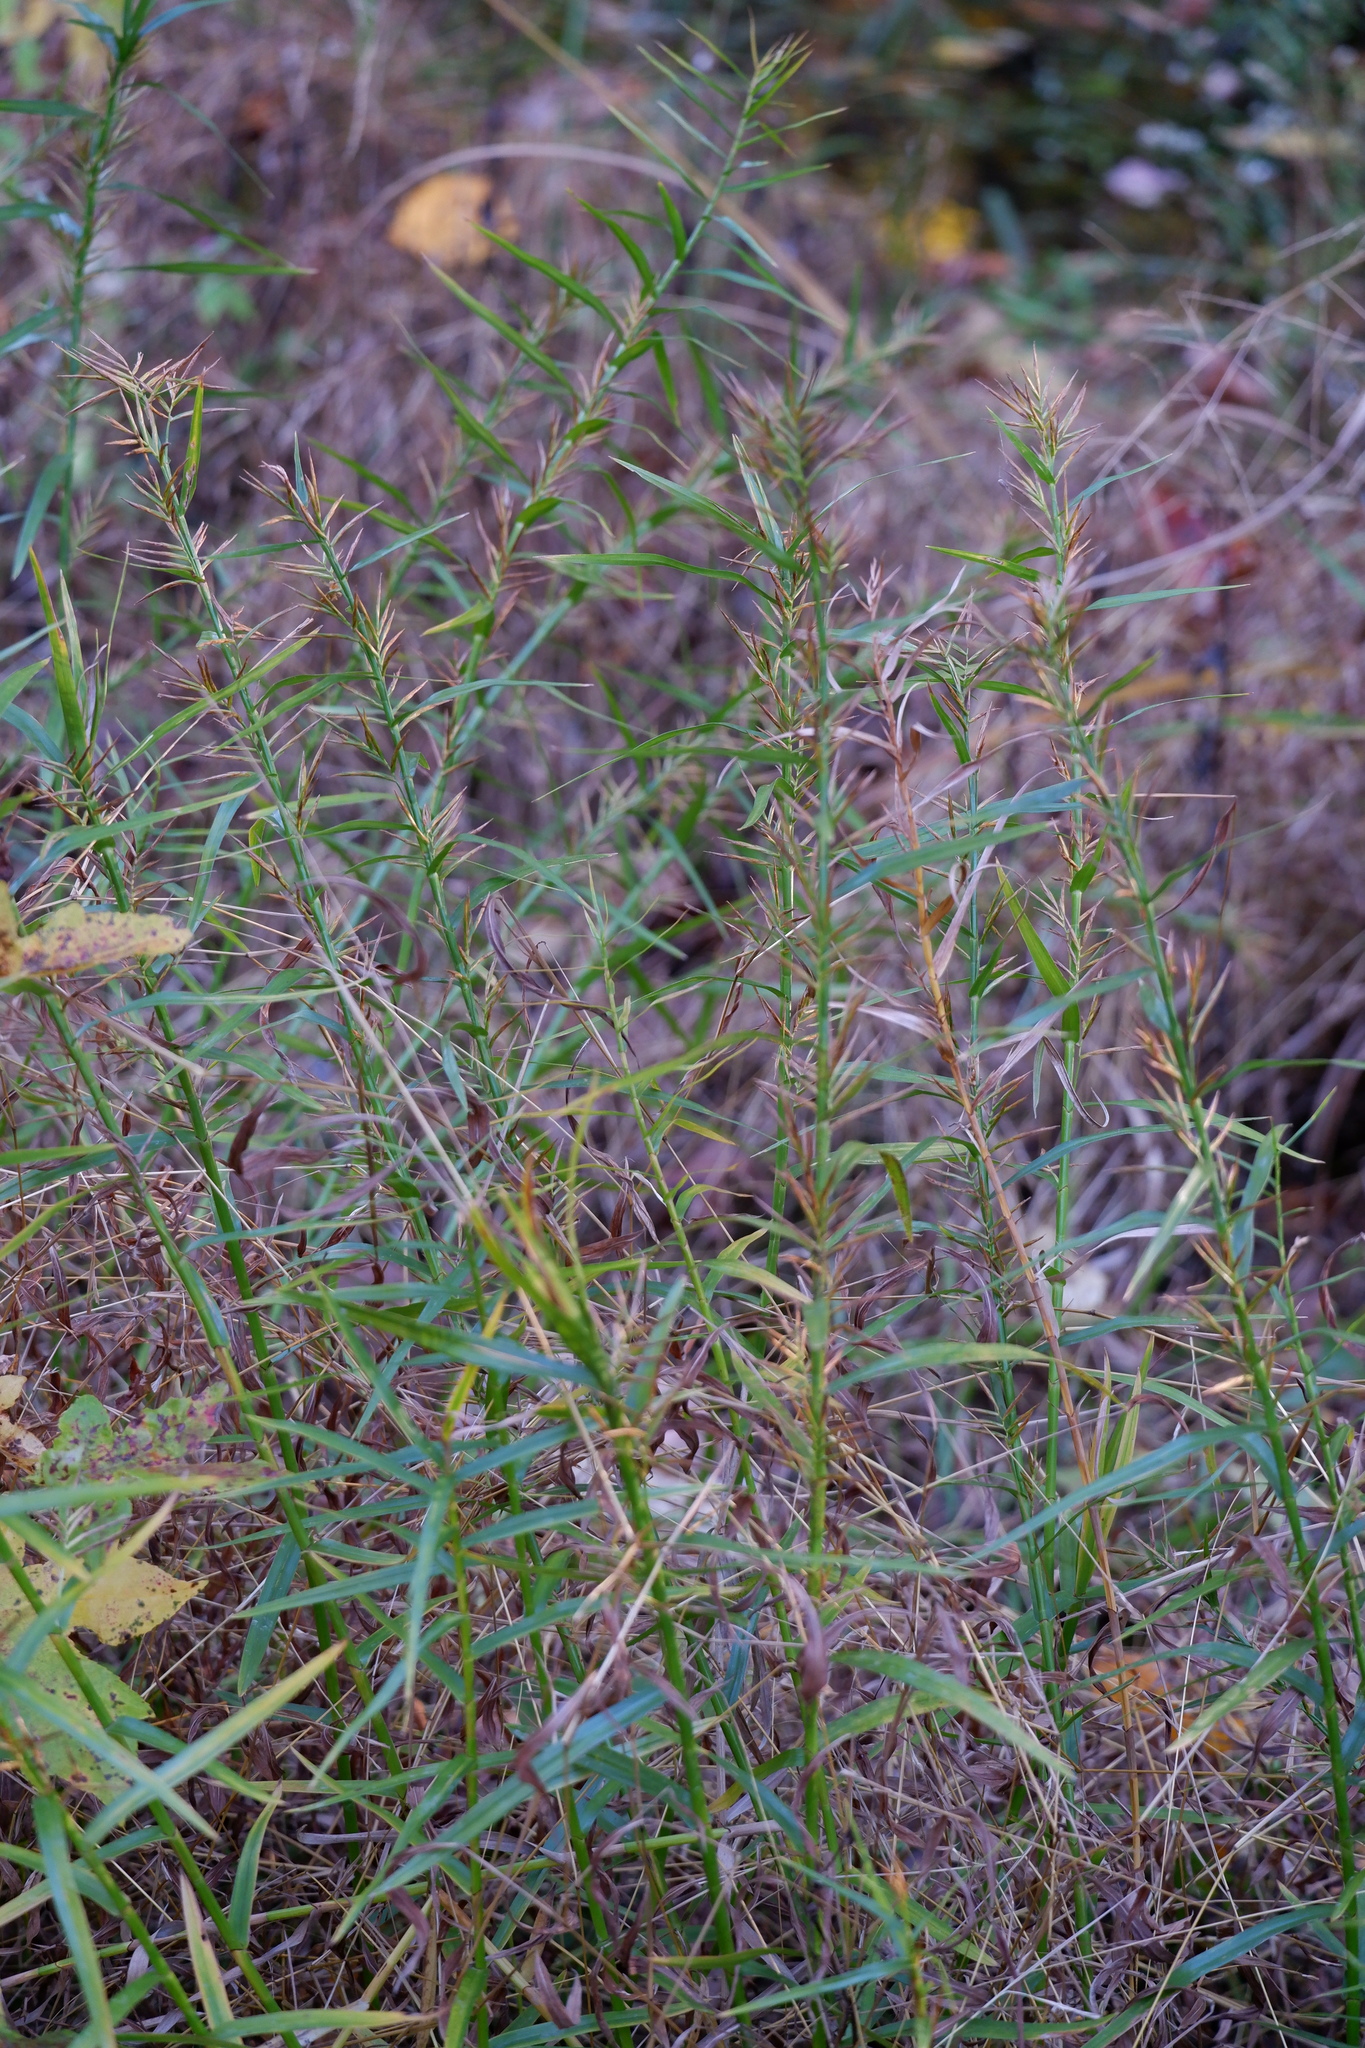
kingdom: Plantae
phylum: Tracheophyta
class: Liliopsida
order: Poales
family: Cyperaceae
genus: Dulichium
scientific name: Dulichium arundinaceum
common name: Three-way sedge
